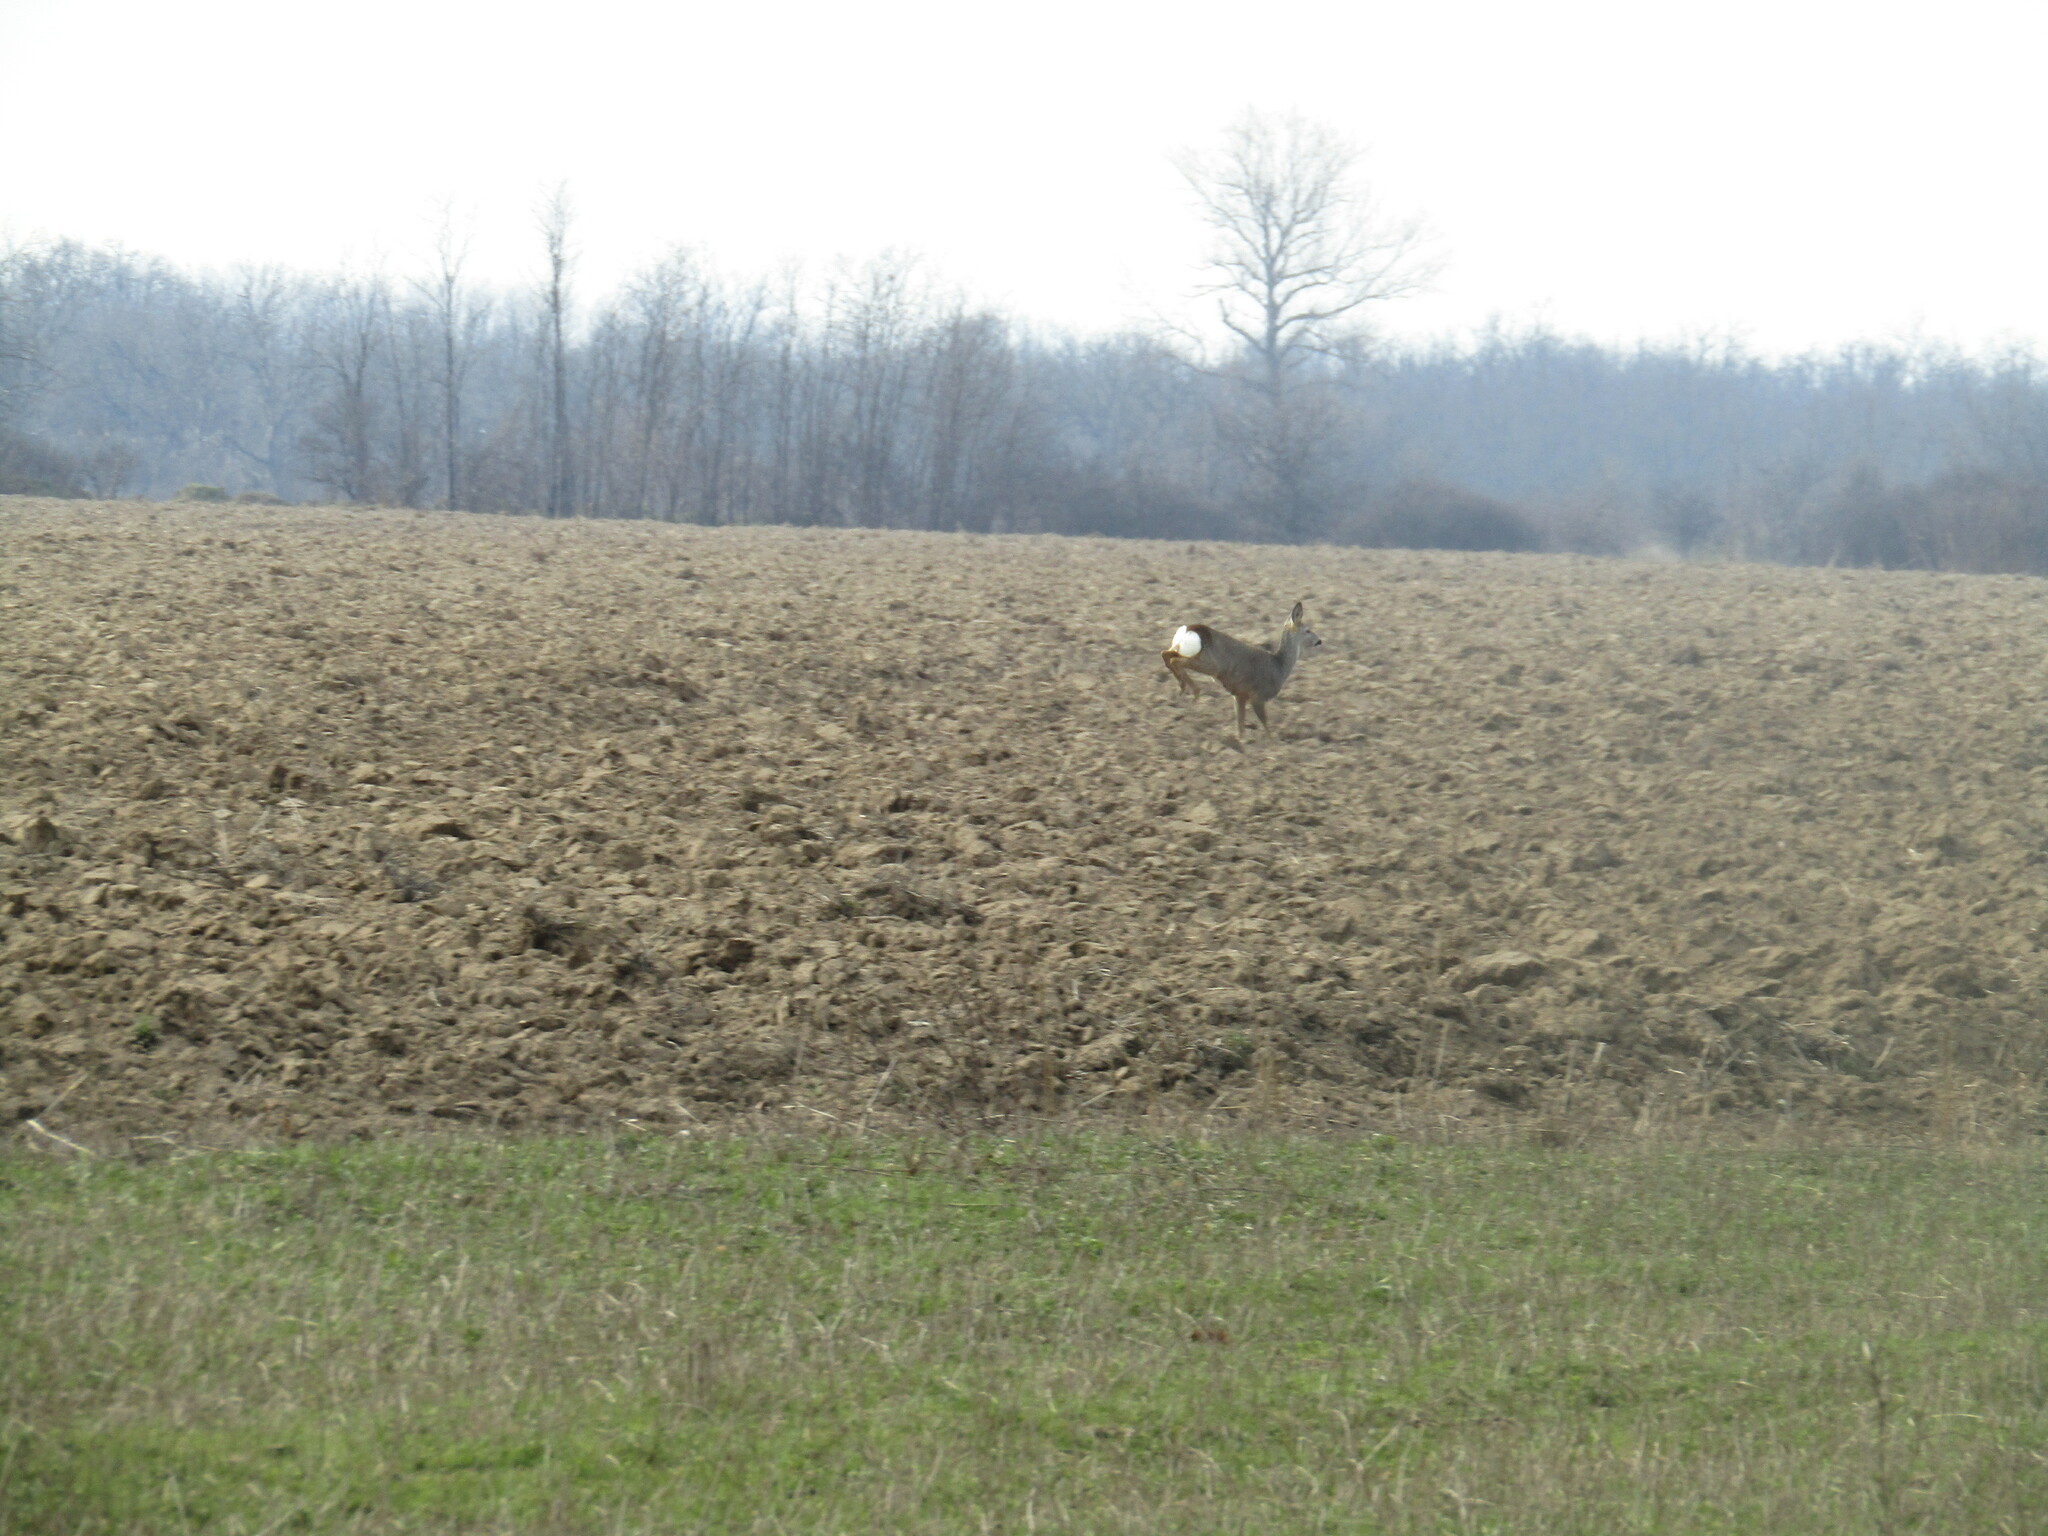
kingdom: Animalia
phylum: Chordata
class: Mammalia
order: Artiodactyla
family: Cervidae
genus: Capreolus
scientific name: Capreolus capreolus
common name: Western roe deer
